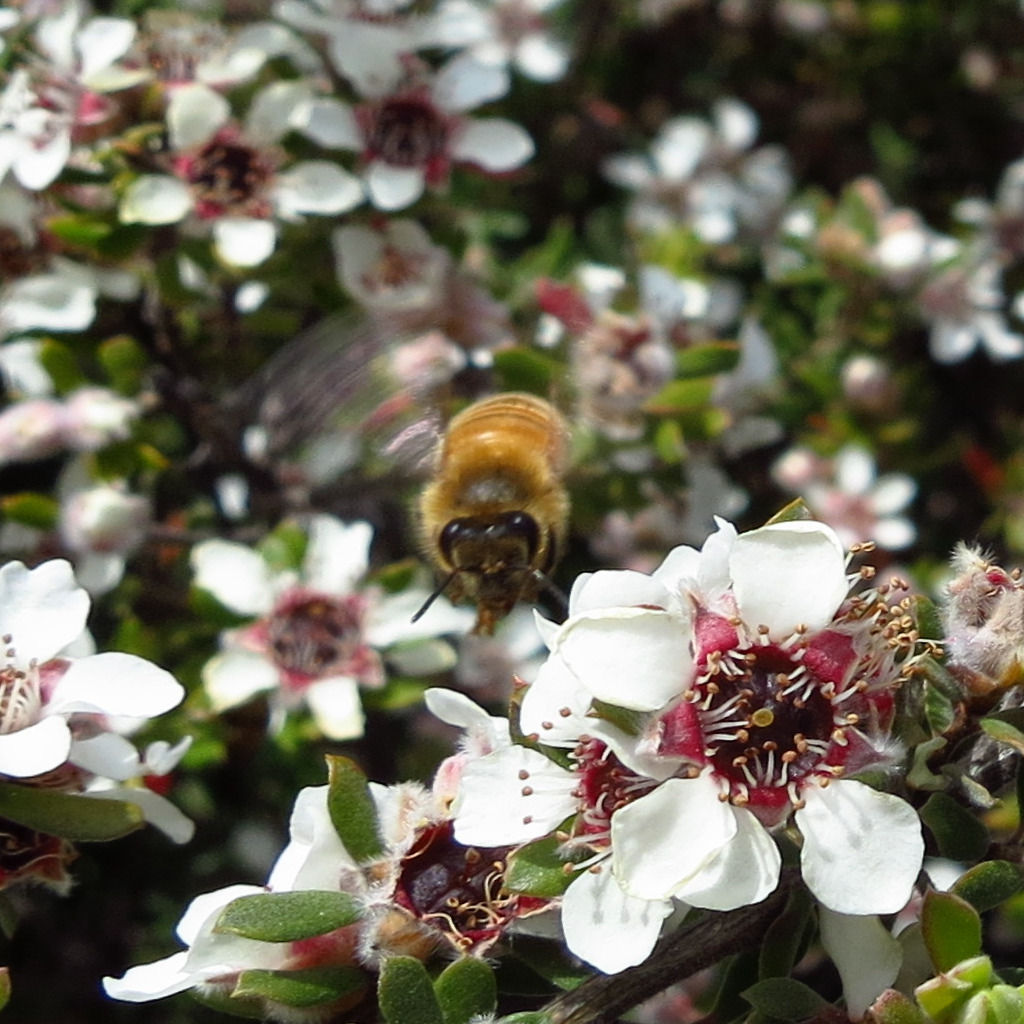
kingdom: Animalia
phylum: Arthropoda
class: Insecta
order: Hymenoptera
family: Apidae
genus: Apis
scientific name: Apis mellifera
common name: Honey bee
